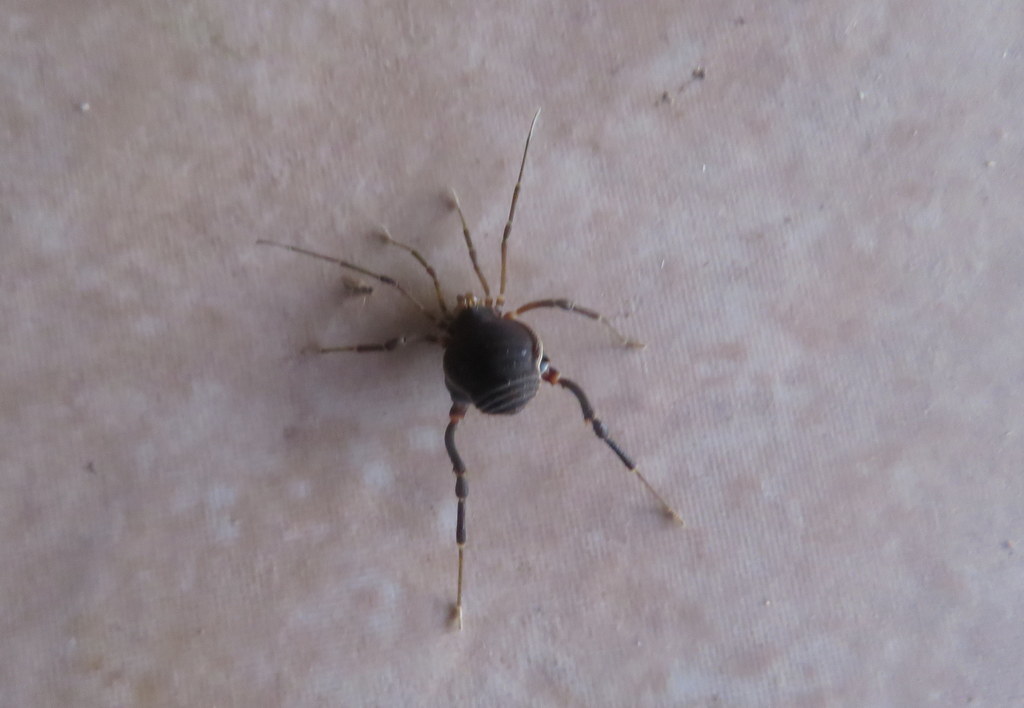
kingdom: Animalia
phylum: Arthropoda
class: Arachnida
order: Opiliones
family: Gonyleptidae
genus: Acanthopachylus
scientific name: Acanthopachylus robustus
